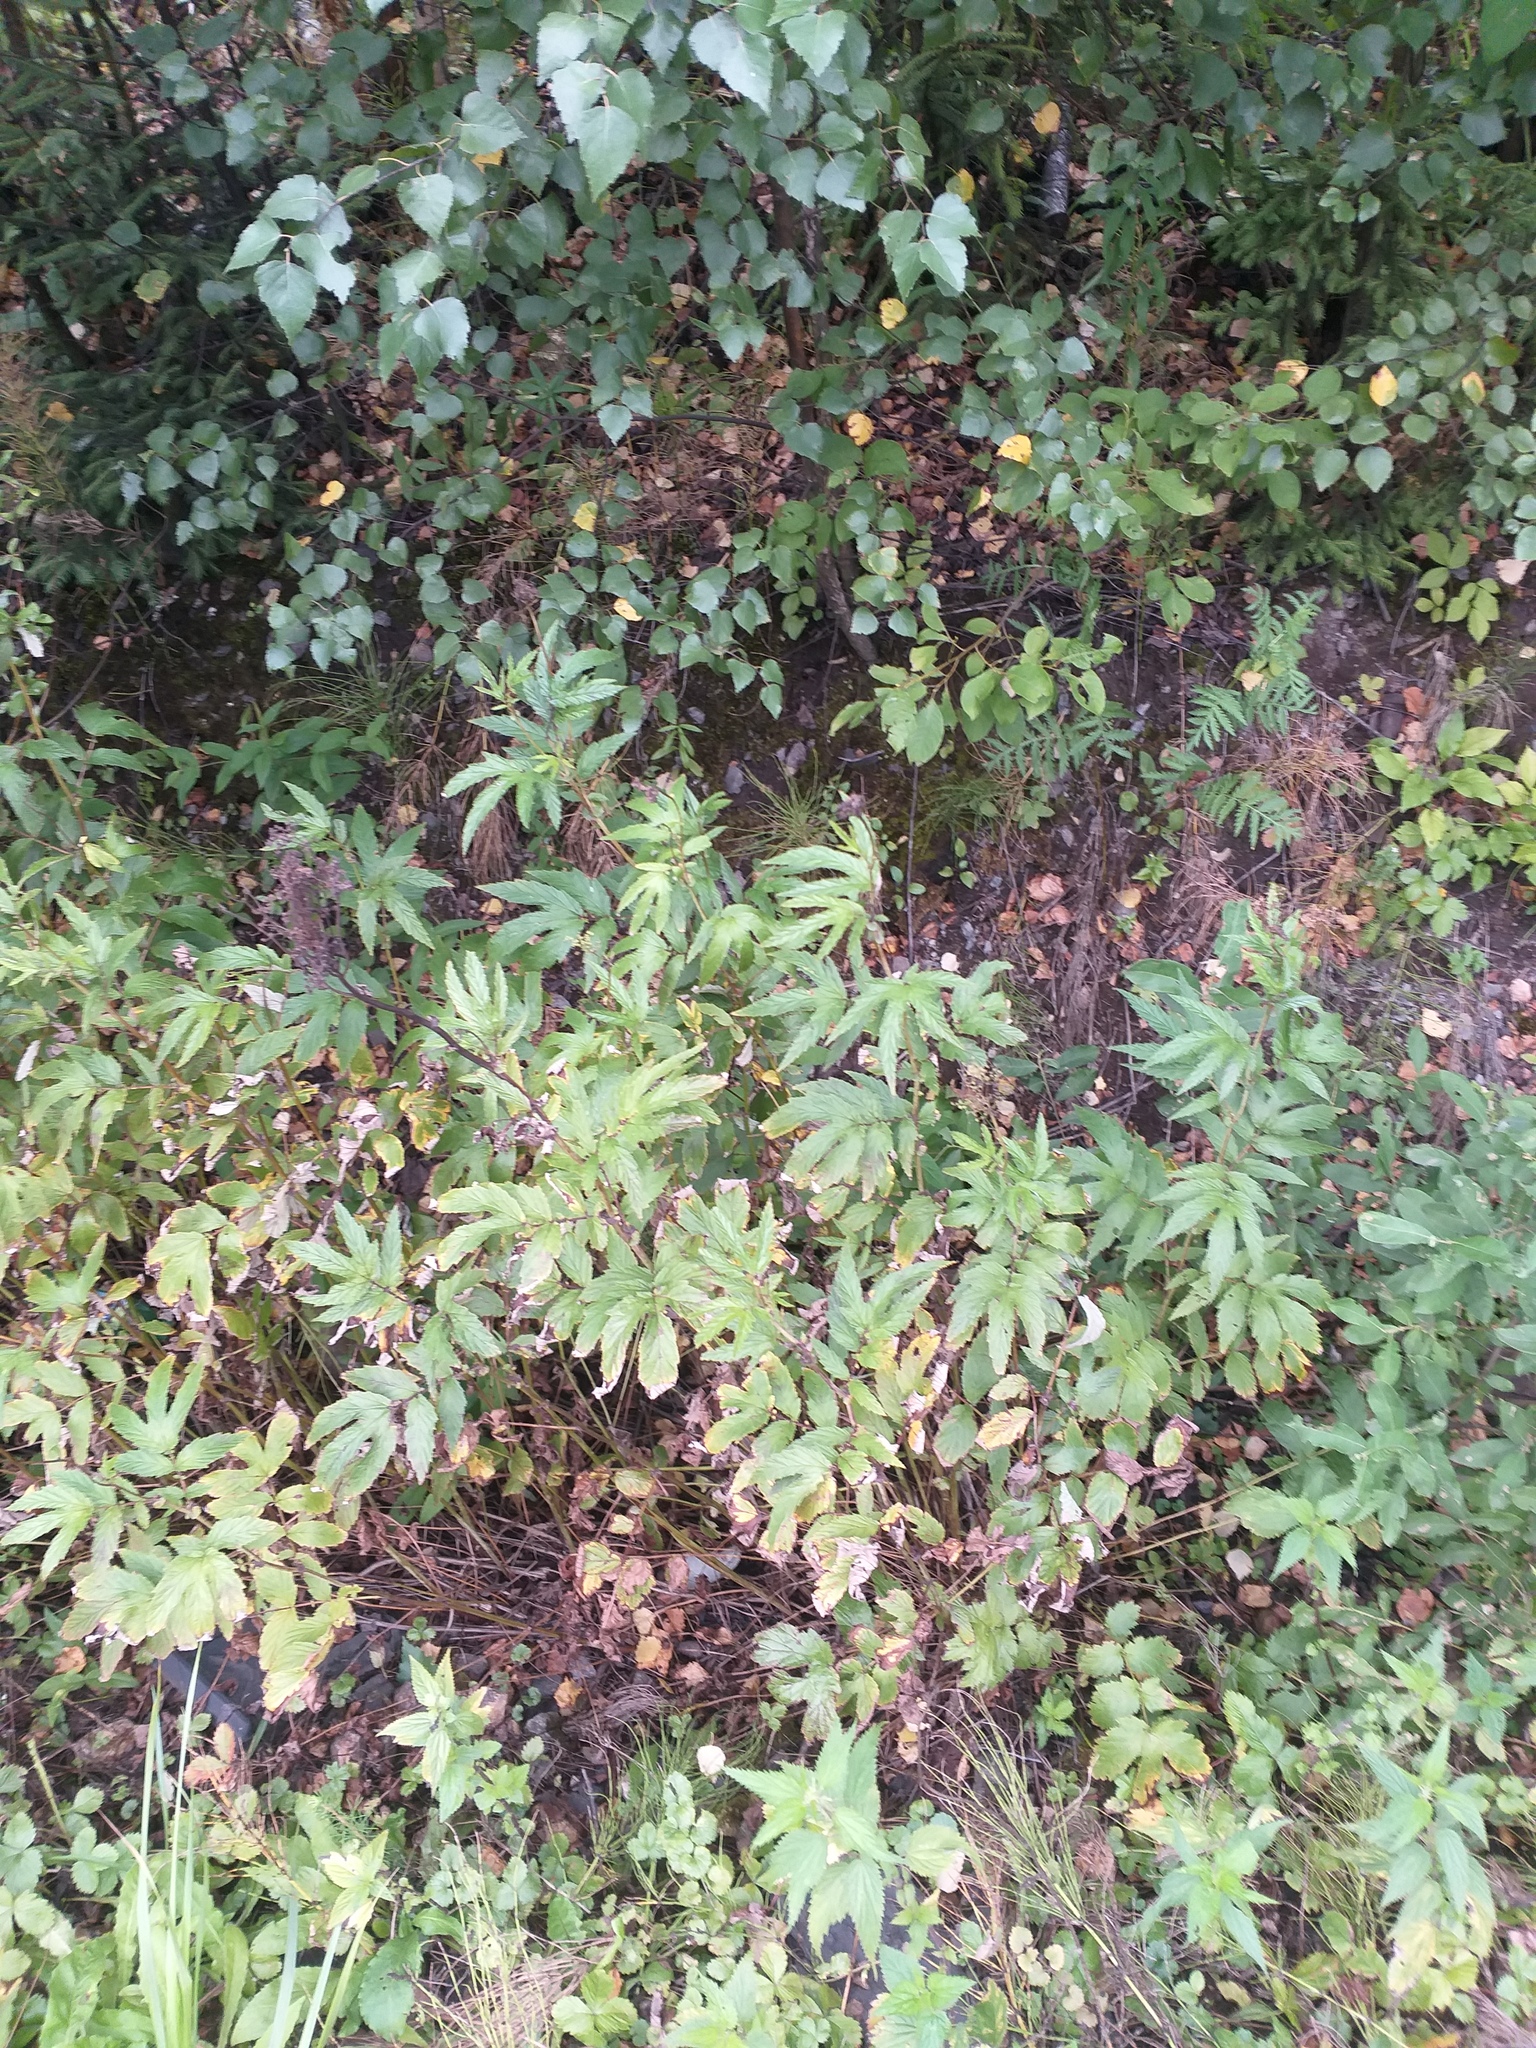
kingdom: Plantae
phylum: Tracheophyta
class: Magnoliopsida
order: Rosales
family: Rosaceae
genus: Filipendula
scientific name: Filipendula ulmaria
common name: Meadowsweet
